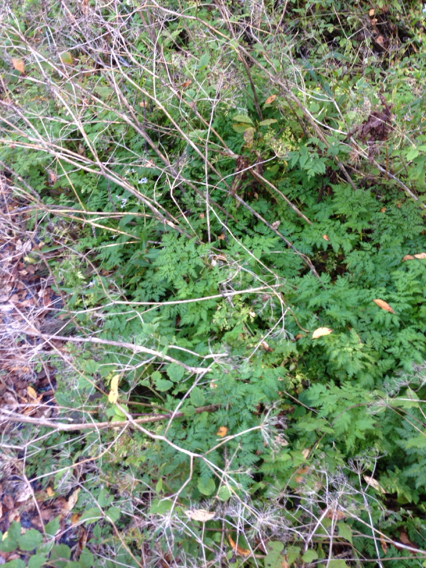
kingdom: Plantae
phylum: Tracheophyta
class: Magnoliopsida
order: Apiales
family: Apiaceae
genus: Anthriscus
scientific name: Anthriscus sylvestris
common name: Cow parsley
